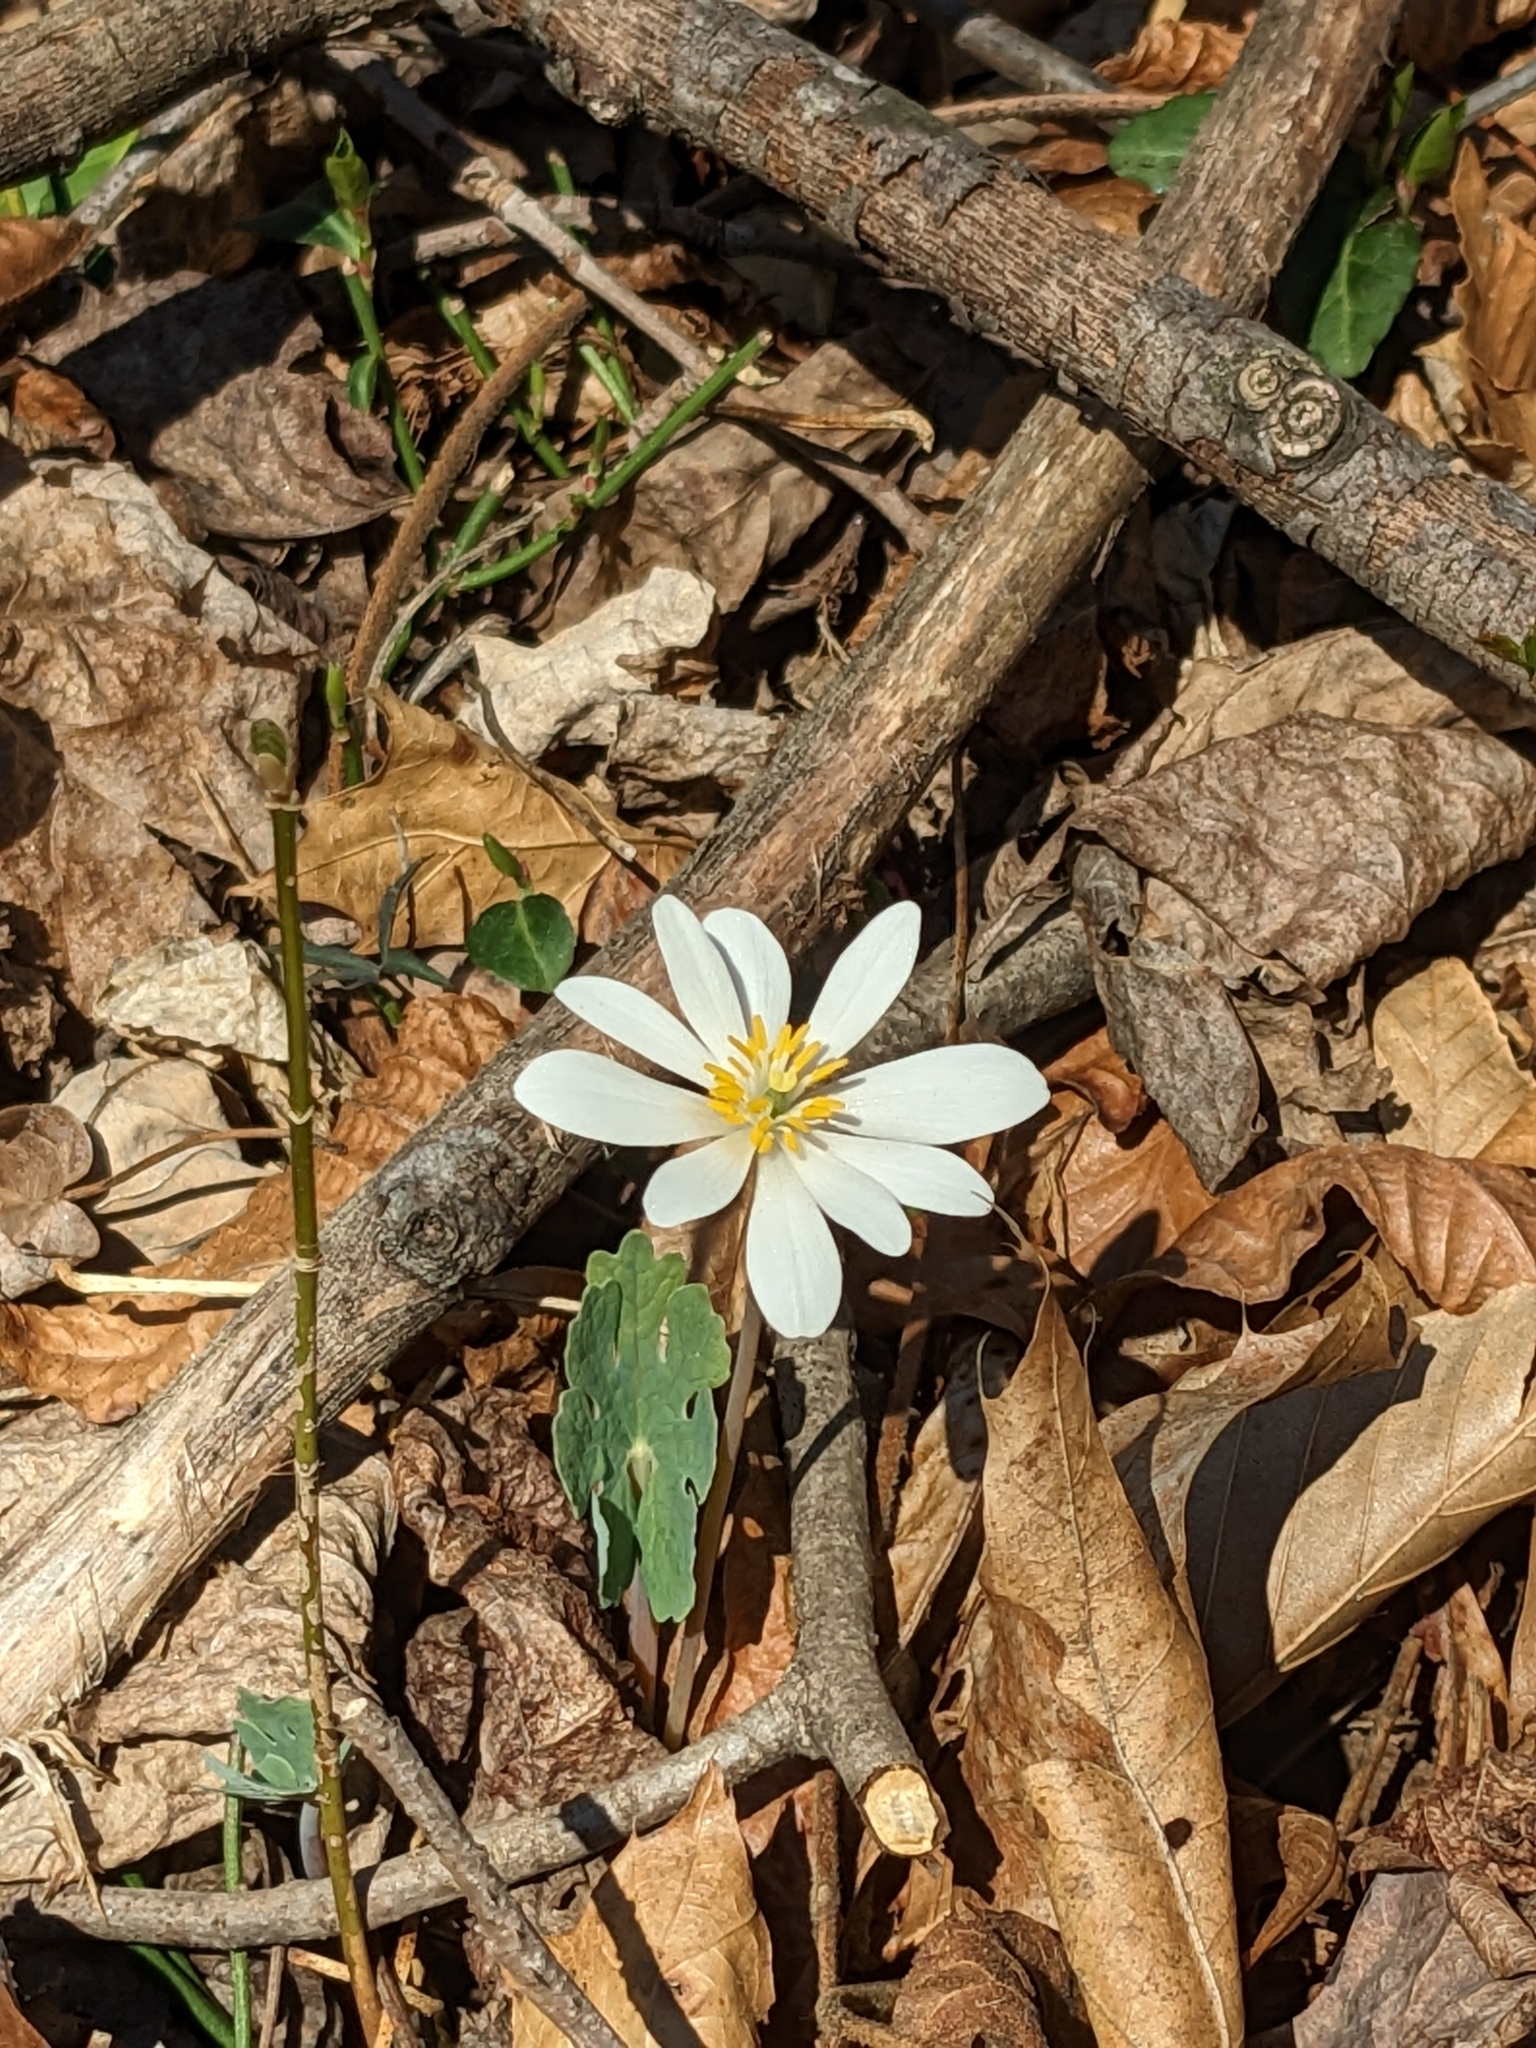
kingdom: Plantae
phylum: Tracheophyta
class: Magnoliopsida
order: Ranunculales
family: Papaveraceae
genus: Sanguinaria
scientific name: Sanguinaria canadensis
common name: Bloodroot
